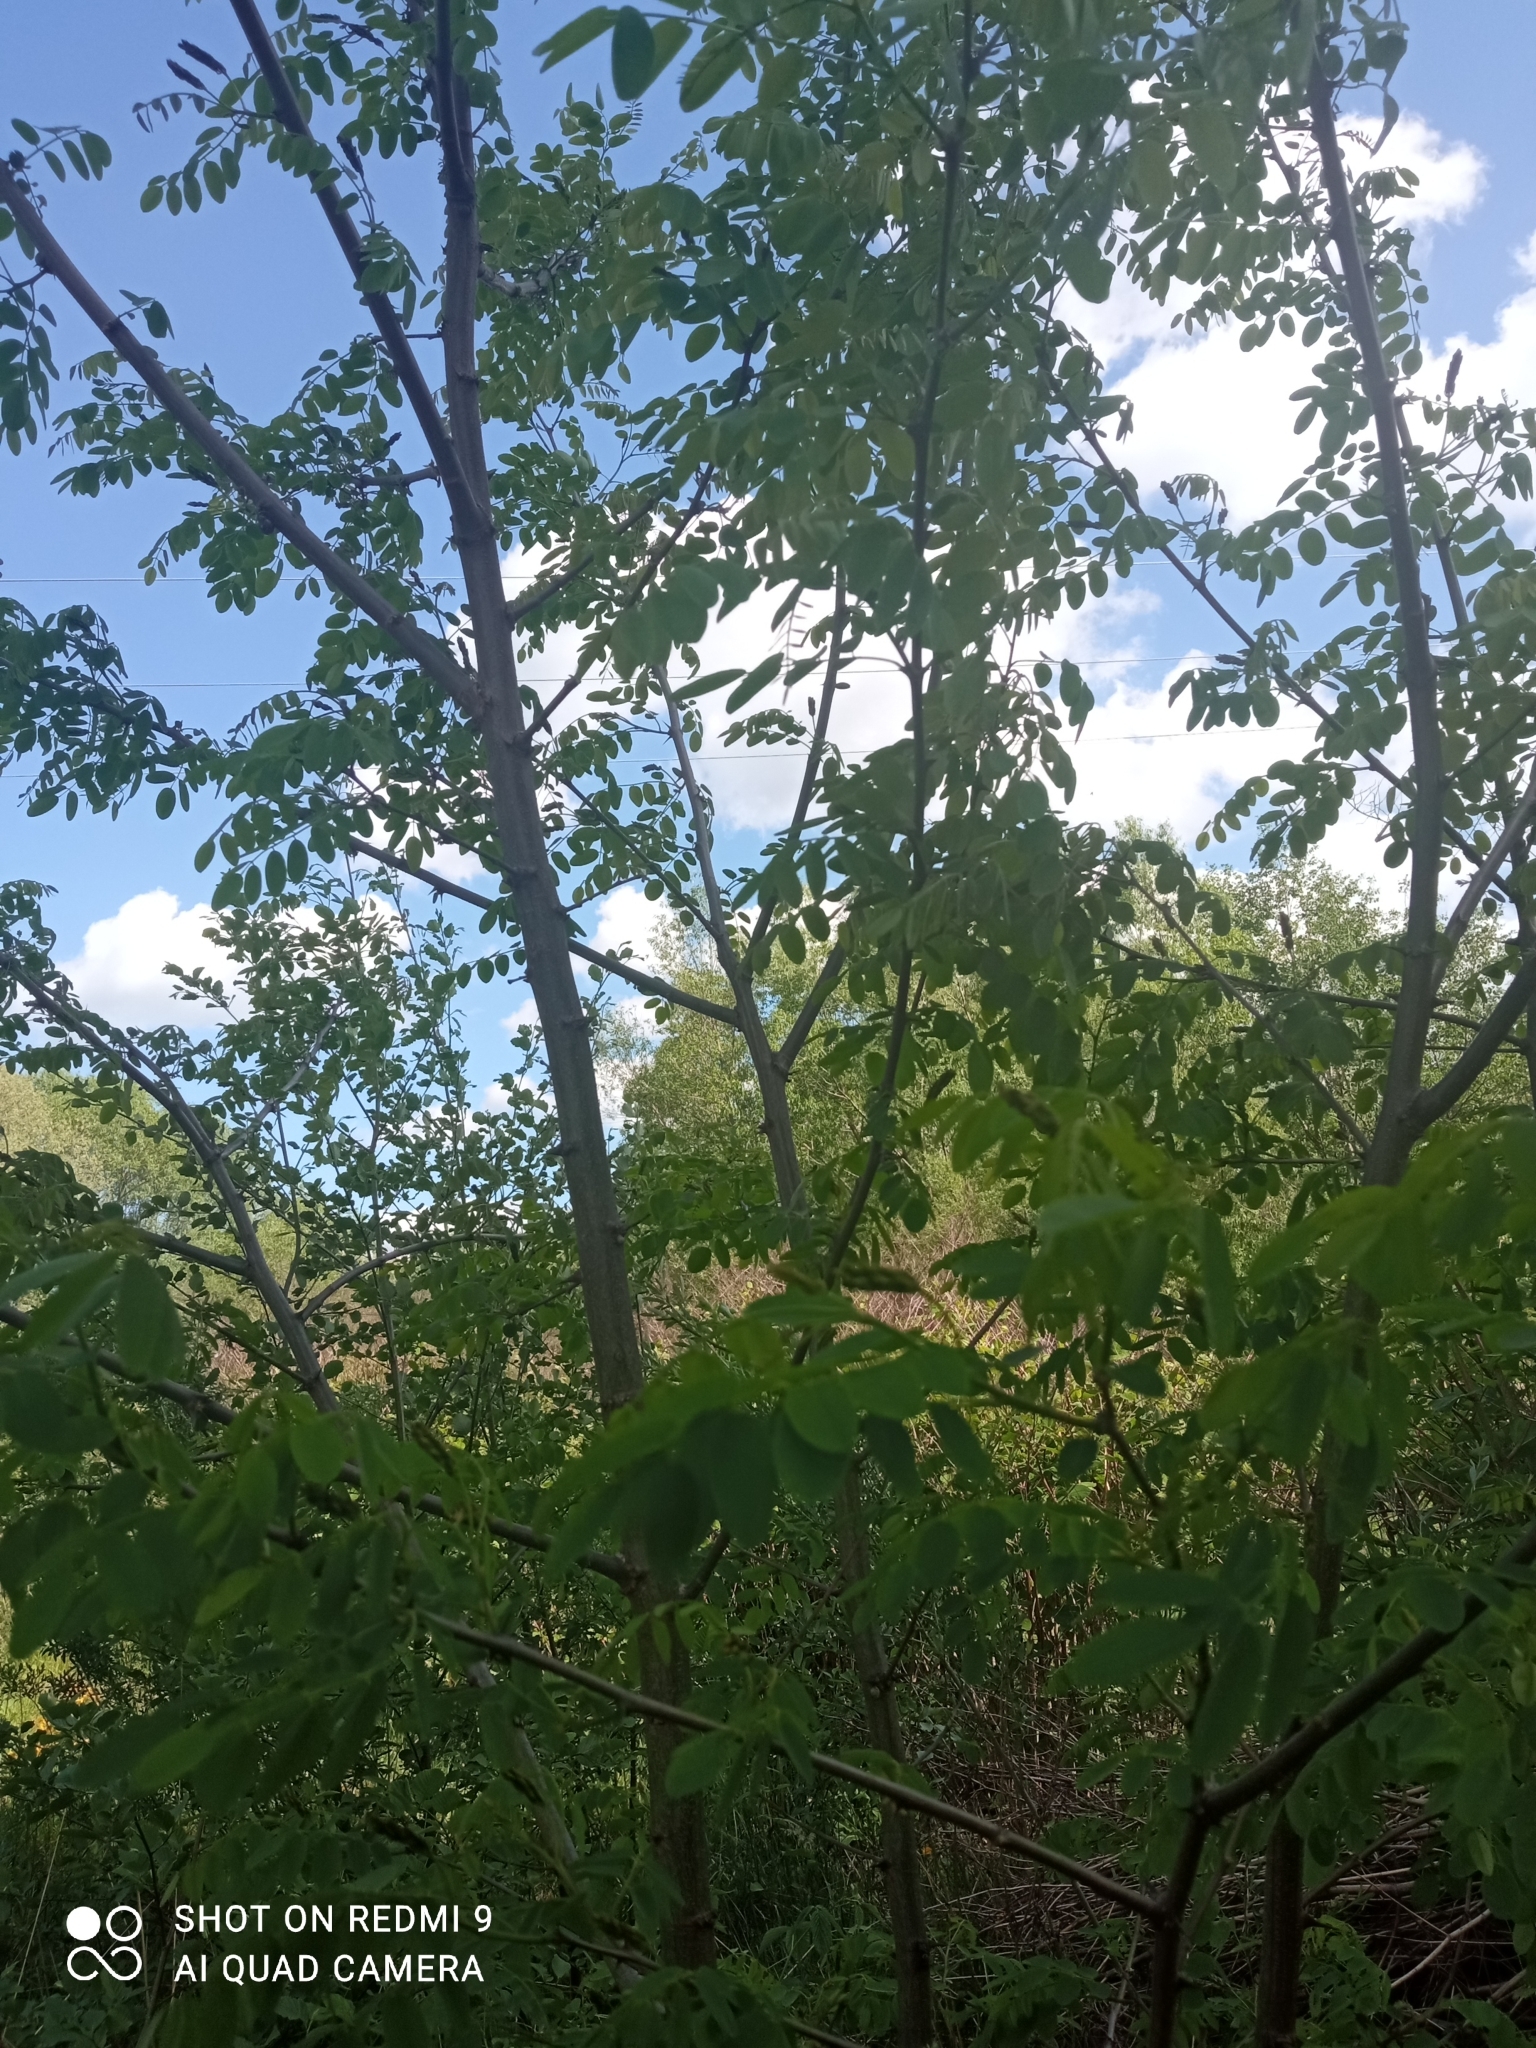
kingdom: Plantae
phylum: Tracheophyta
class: Magnoliopsida
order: Fabales
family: Fabaceae
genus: Robinia
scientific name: Robinia pseudoacacia
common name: Black locust
